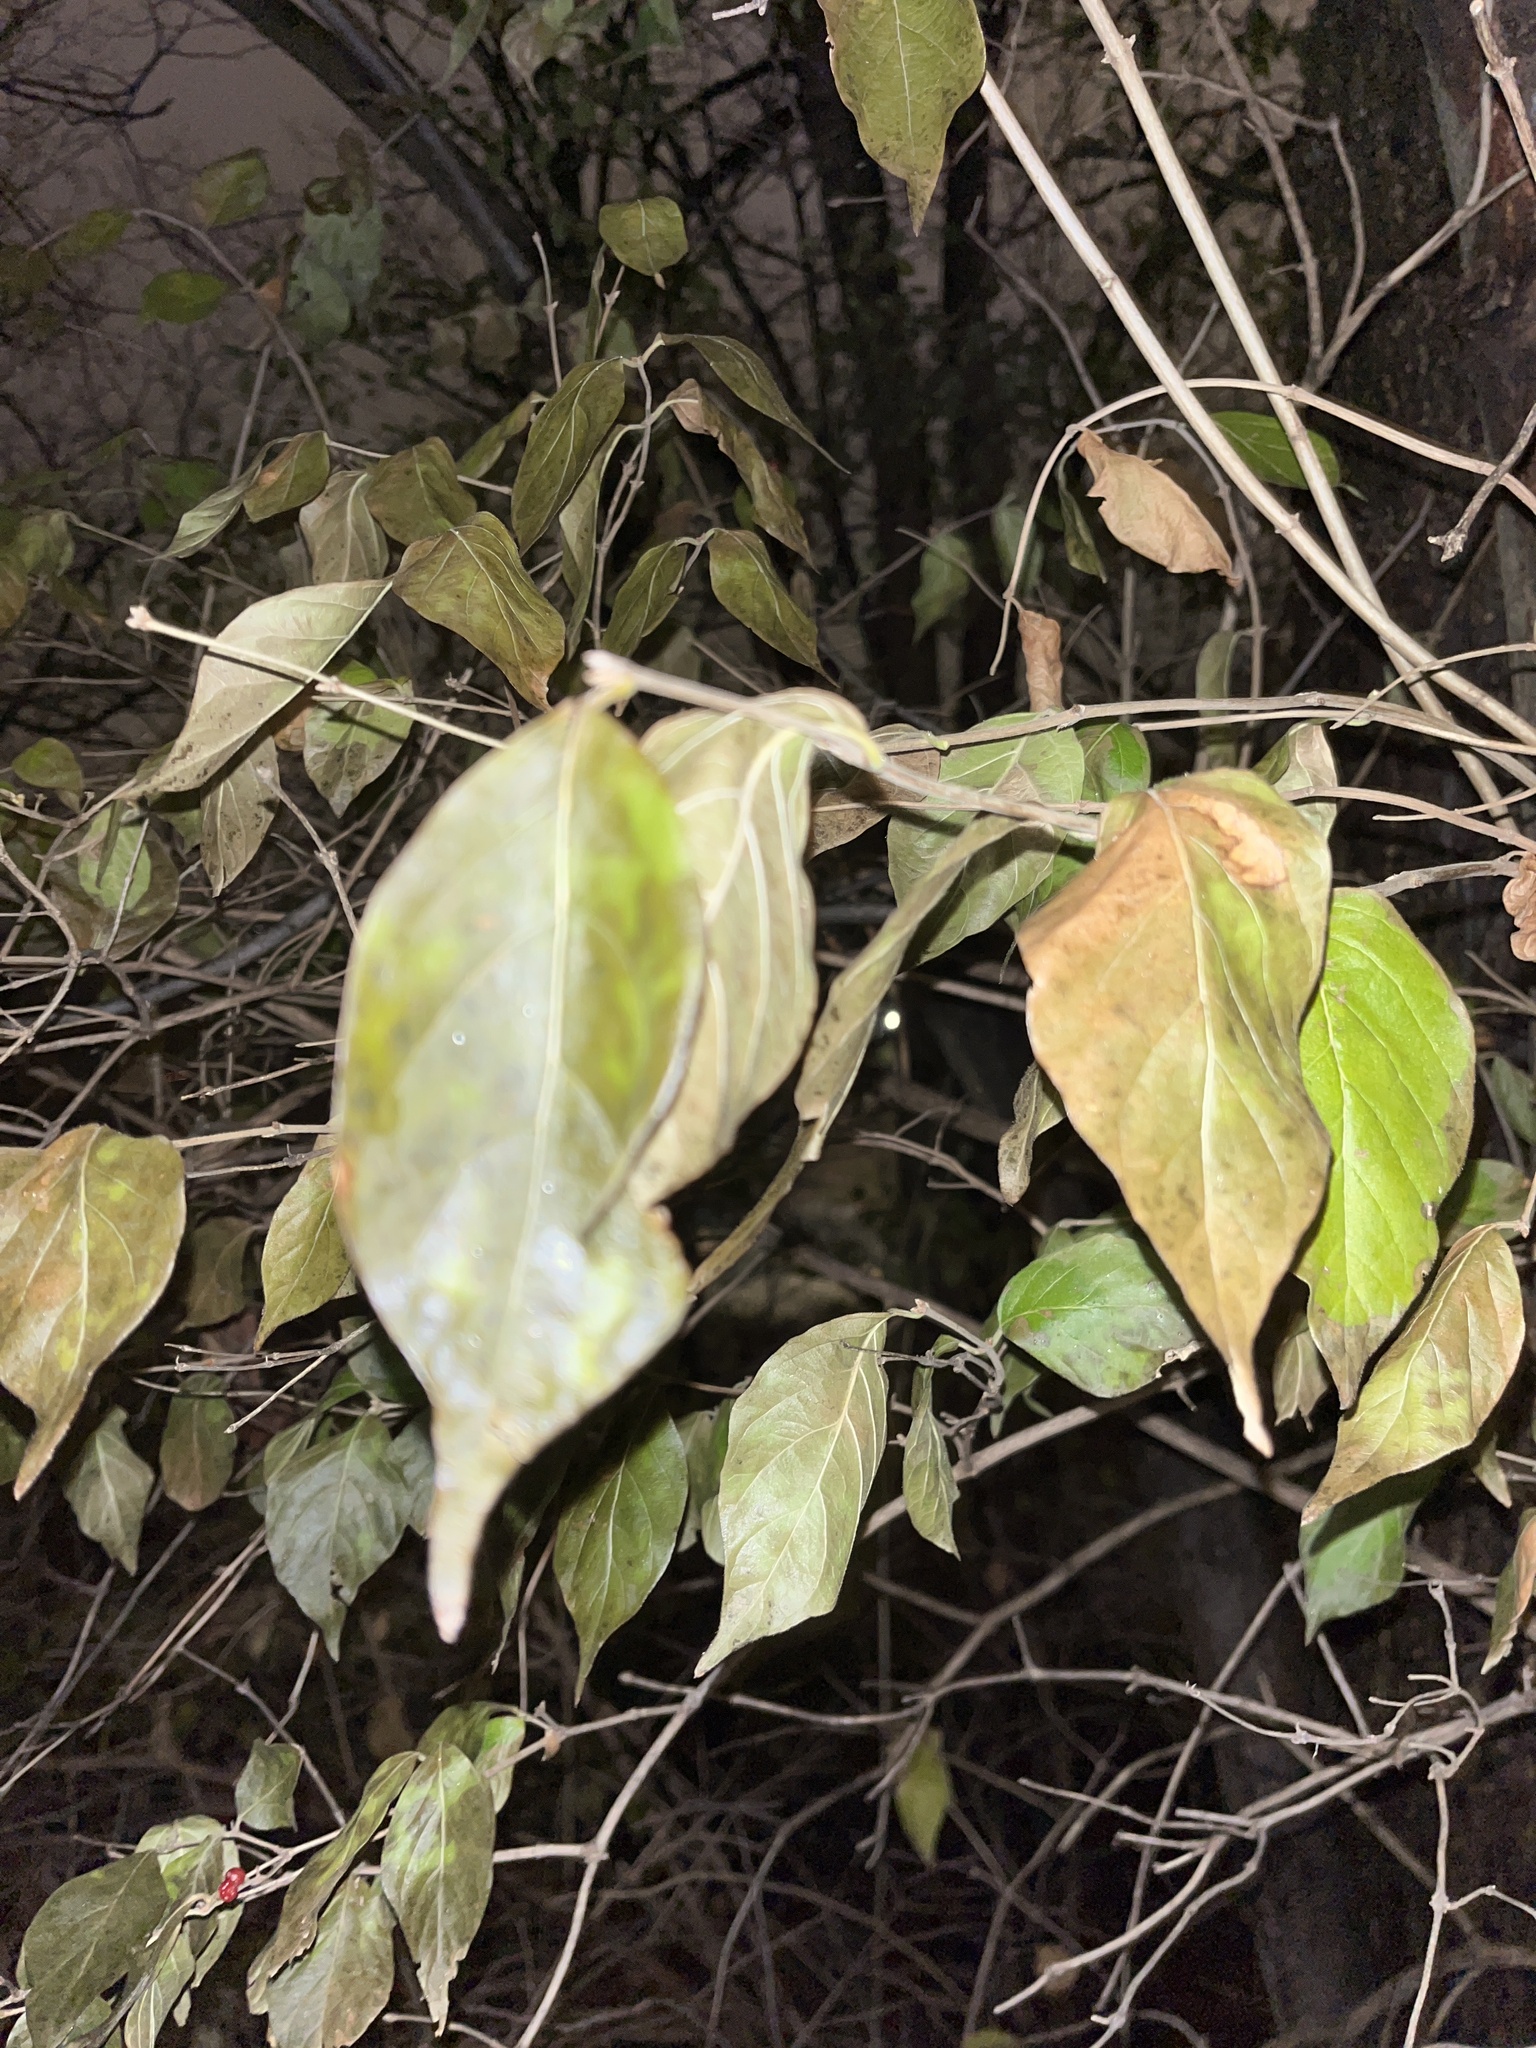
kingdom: Plantae
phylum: Tracheophyta
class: Magnoliopsida
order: Dipsacales
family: Caprifoliaceae
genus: Lonicera
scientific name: Lonicera maackii
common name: Amur honeysuckle
